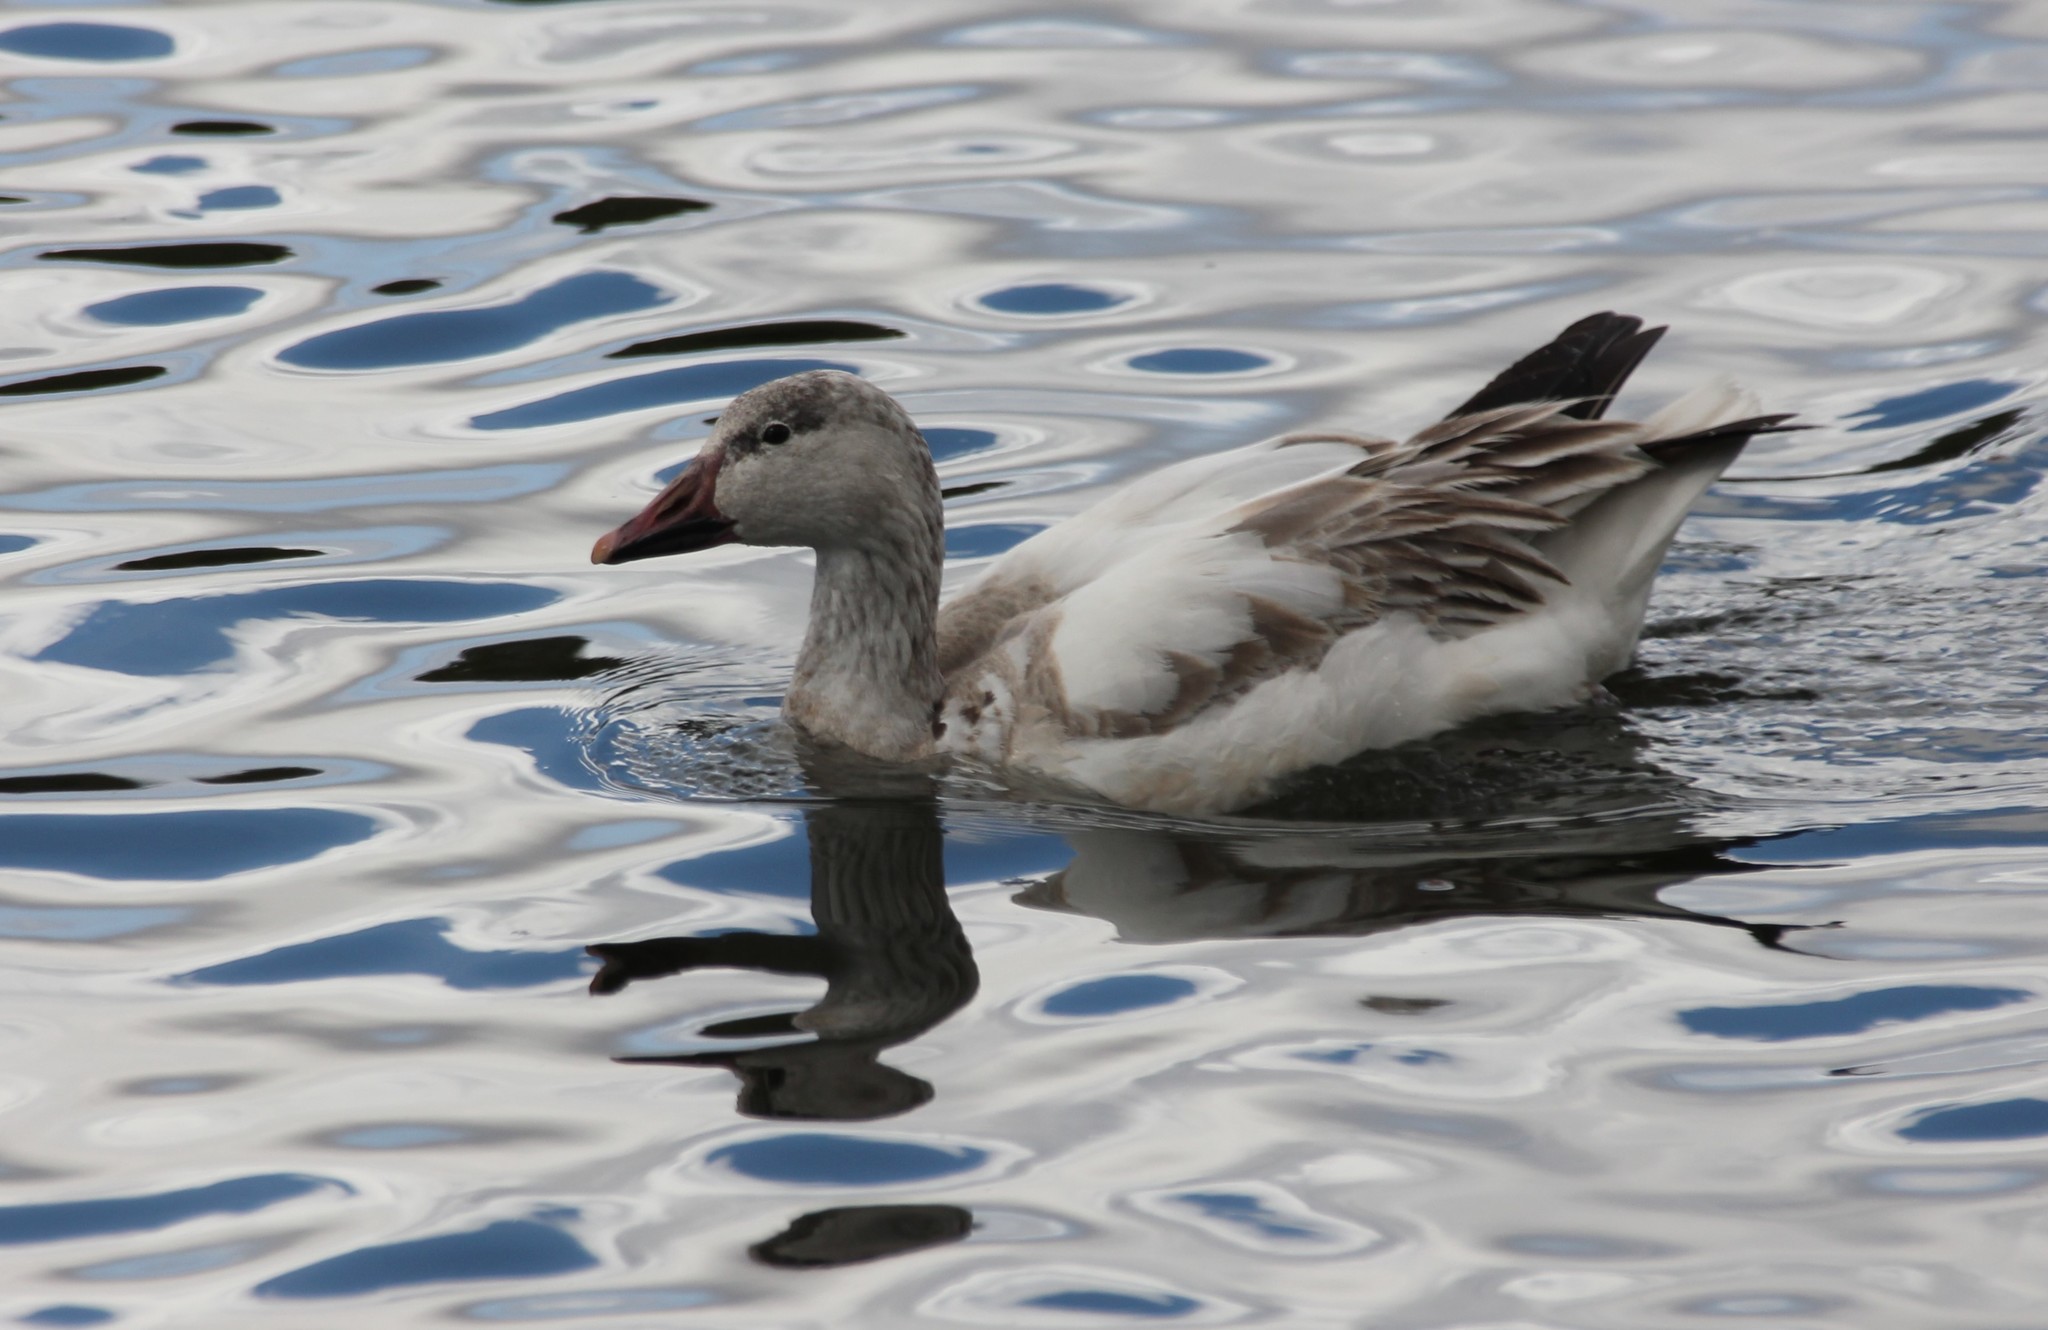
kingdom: Animalia
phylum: Chordata
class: Aves
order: Anseriformes
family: Anatidae
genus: Anser
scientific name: Anser caerulescens
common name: Snow goose
